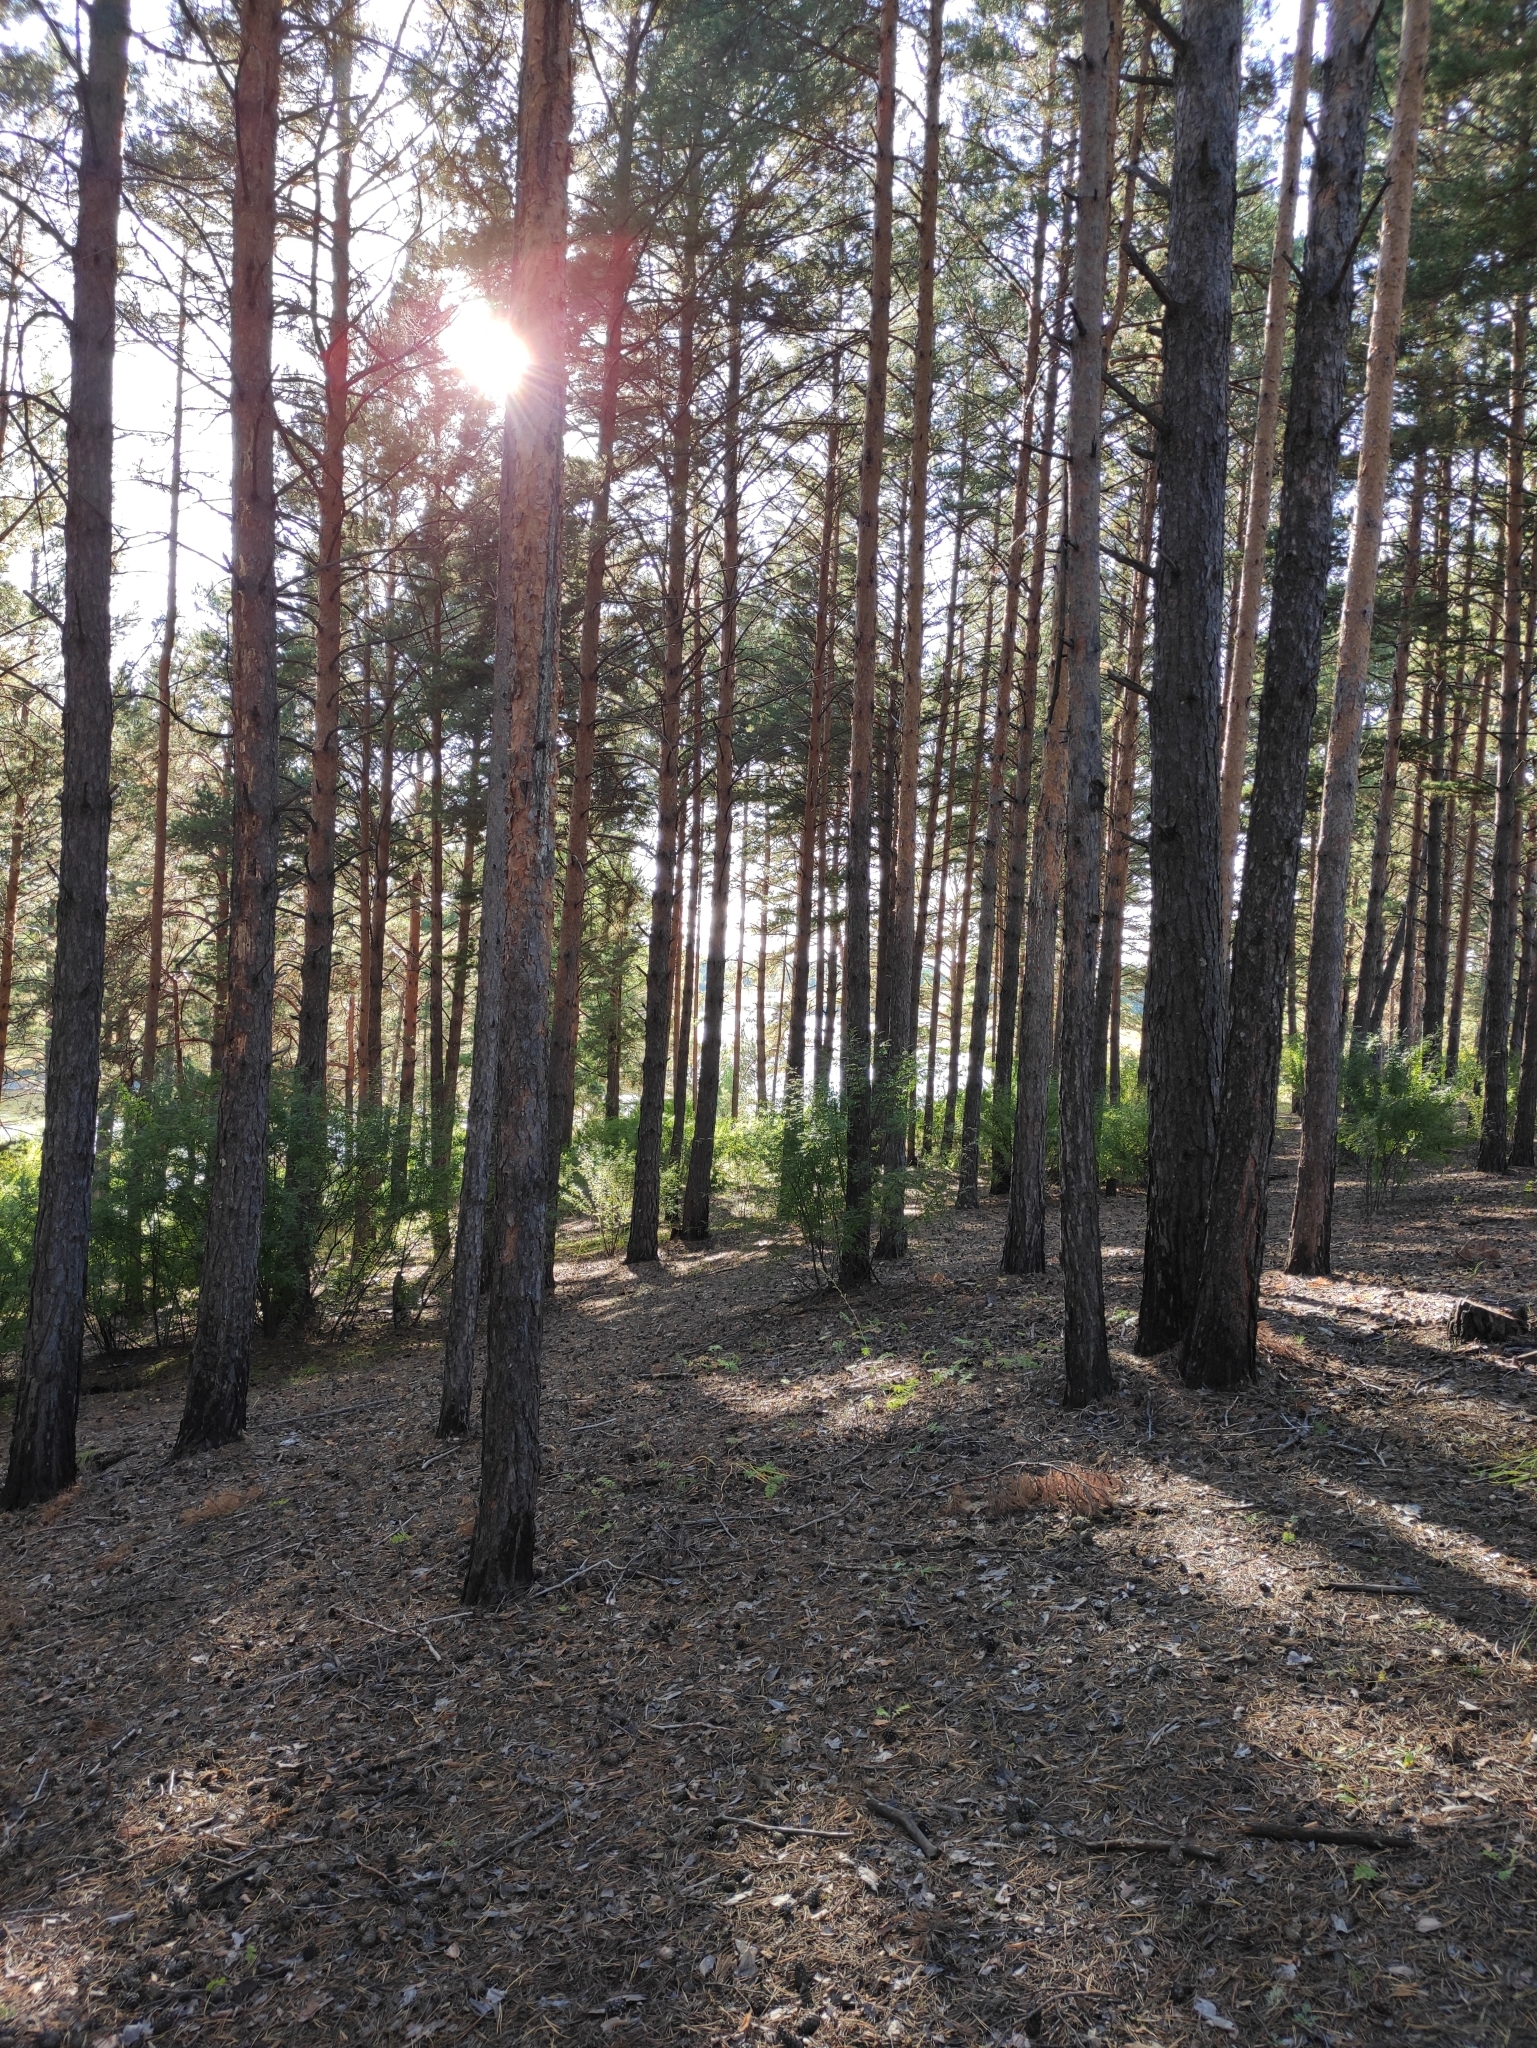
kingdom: Plantae
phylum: Tracheophyta
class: Pinopsida
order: Pinales
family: Pinaceae
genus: Pinus
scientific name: Pinus sylvestris
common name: Scots pine
